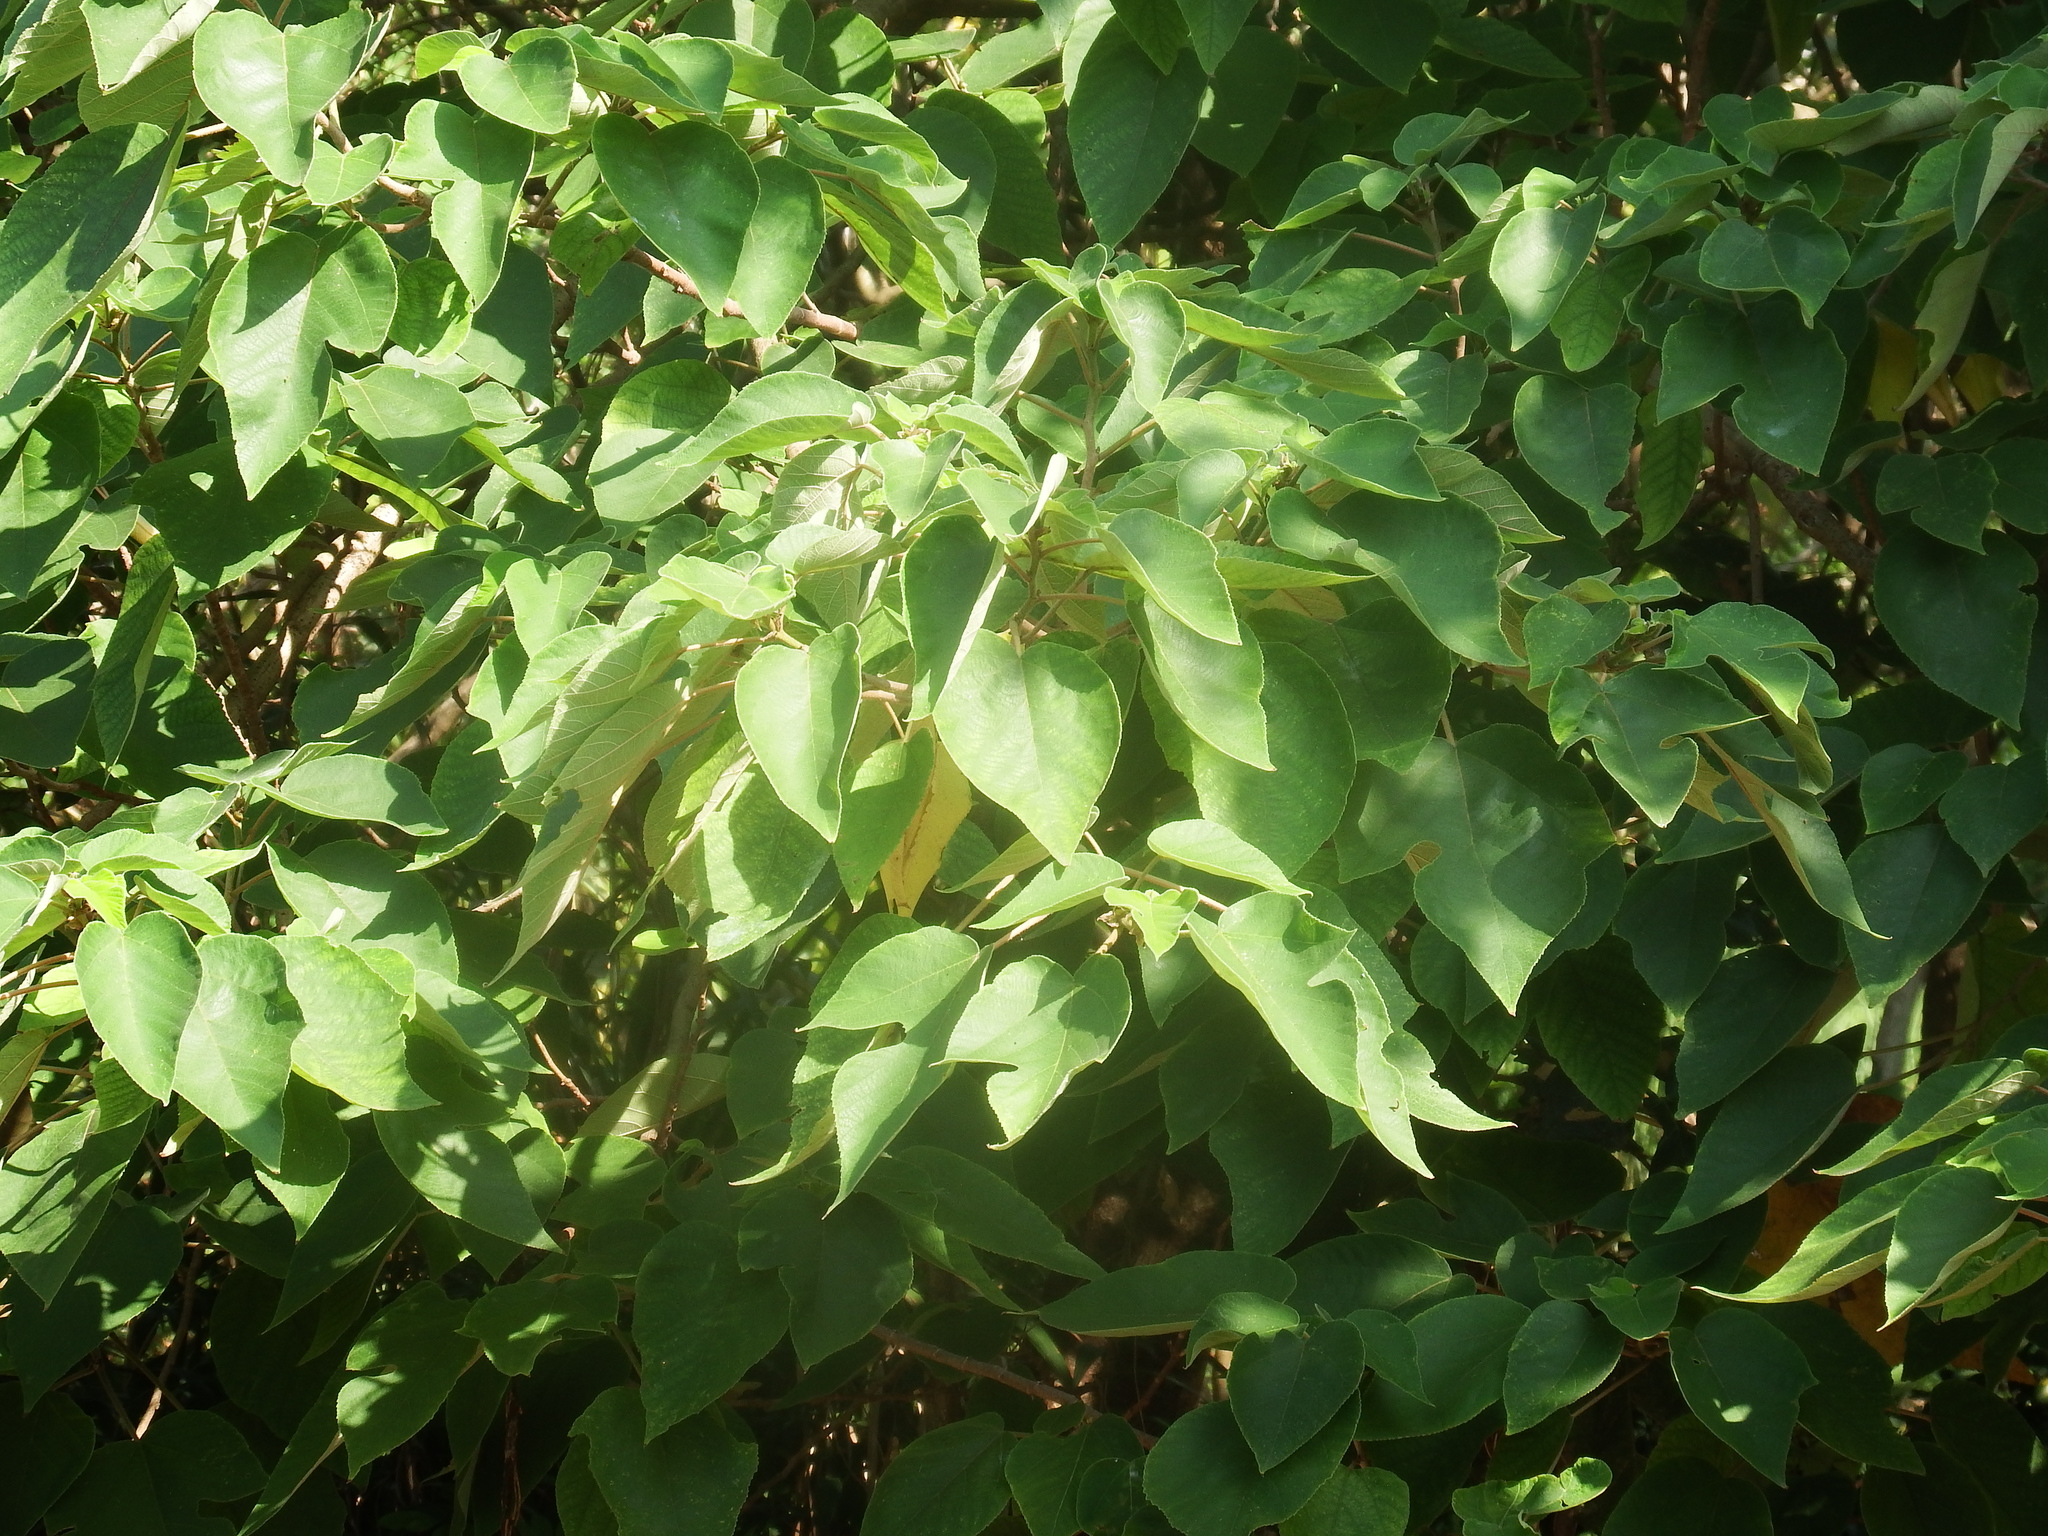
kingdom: Plantae
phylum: Tracheophyta
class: Magnoliopsida
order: Rosales
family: Moraceae
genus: Broussonetia
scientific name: Broussonetia papyrifera
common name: Paper mulberry
